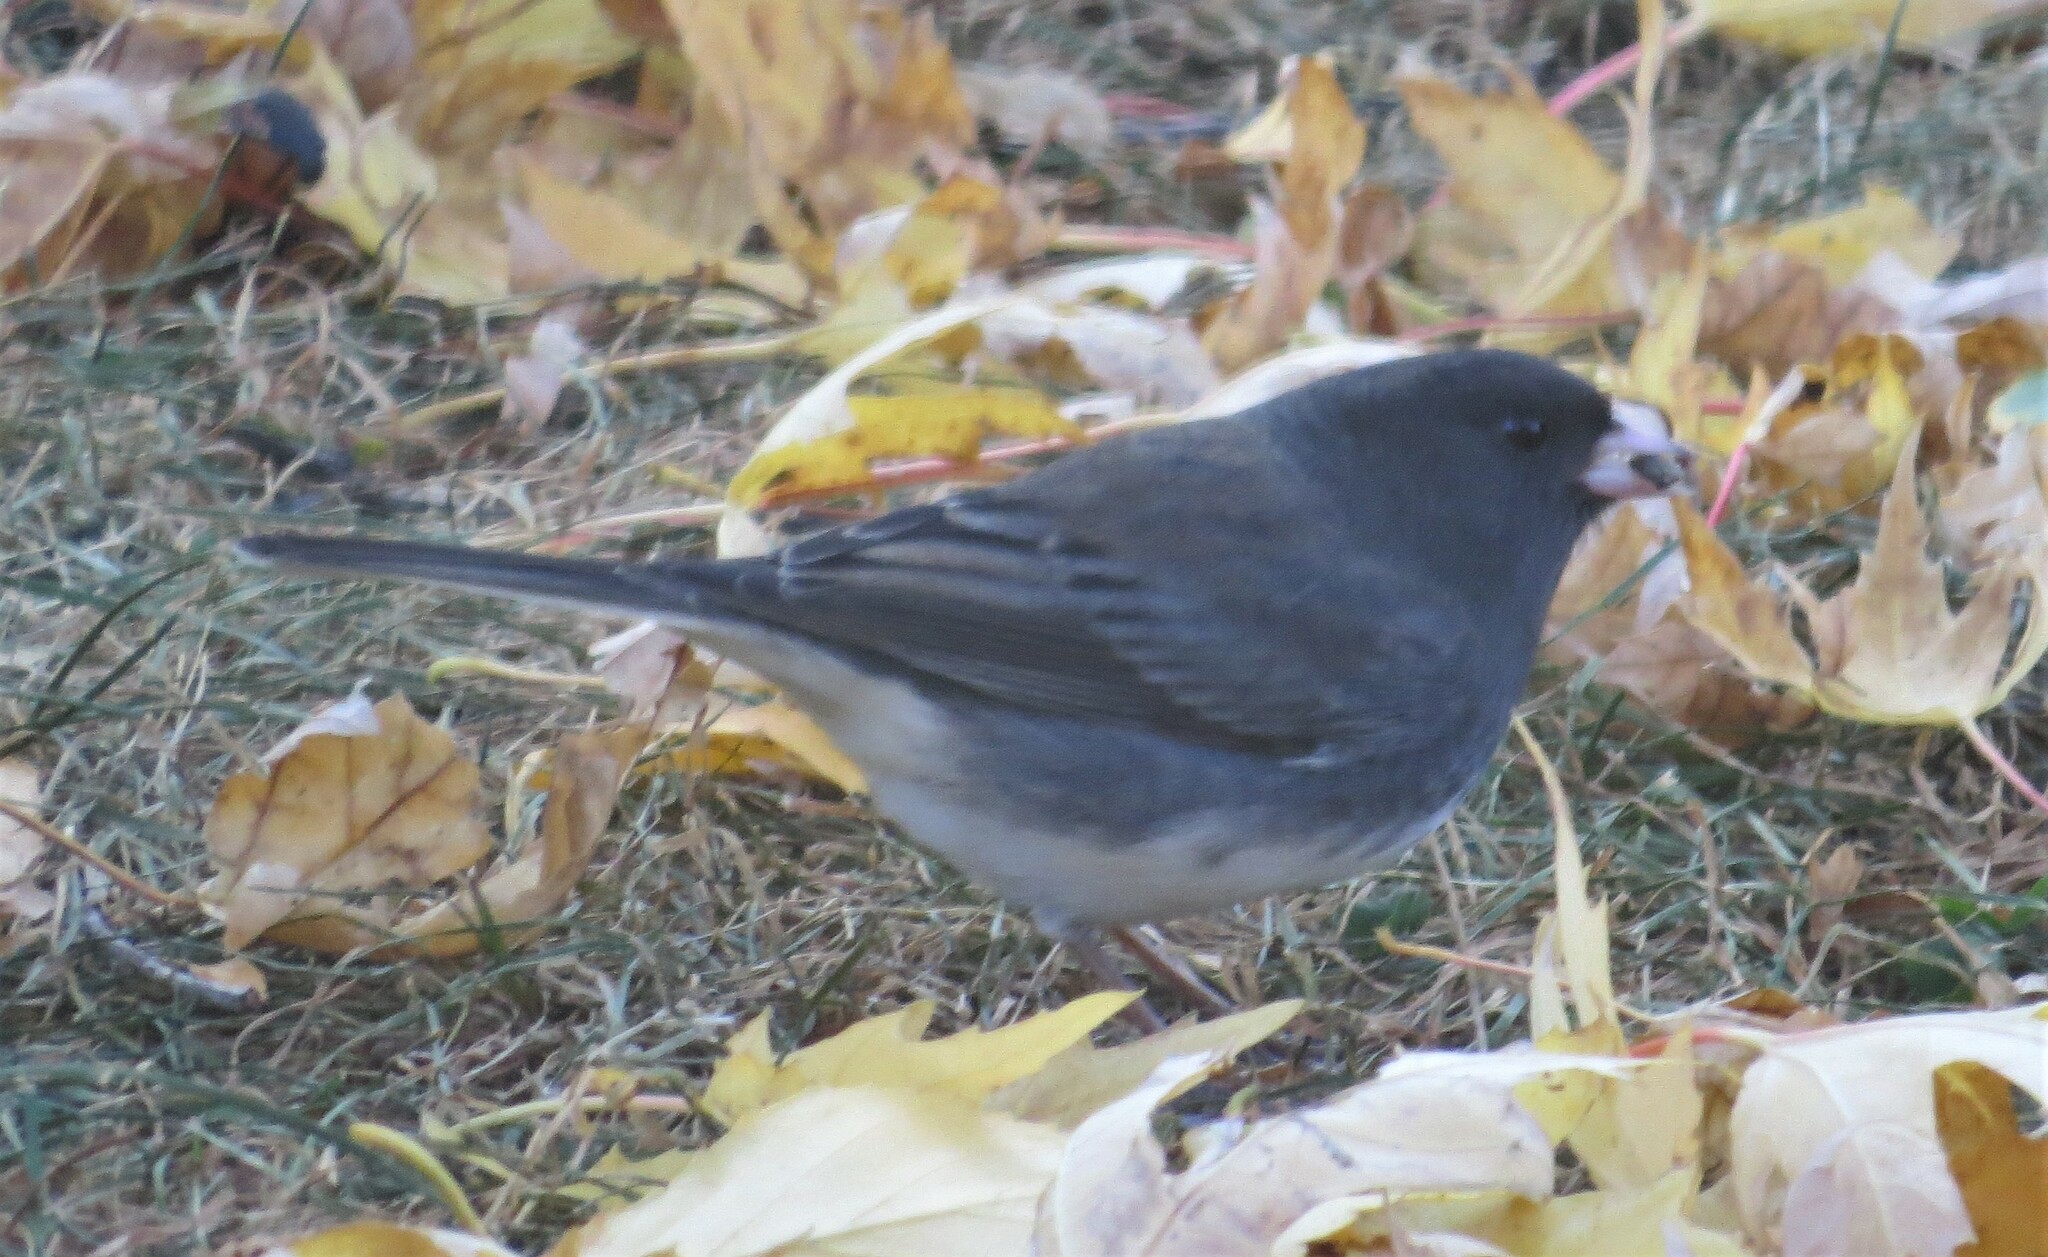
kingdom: Animalia
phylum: Chordata
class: Aves
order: Passeriformes
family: Passerellidae
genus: Junco
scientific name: Junco hyemalis
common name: Dark-eyed junco
